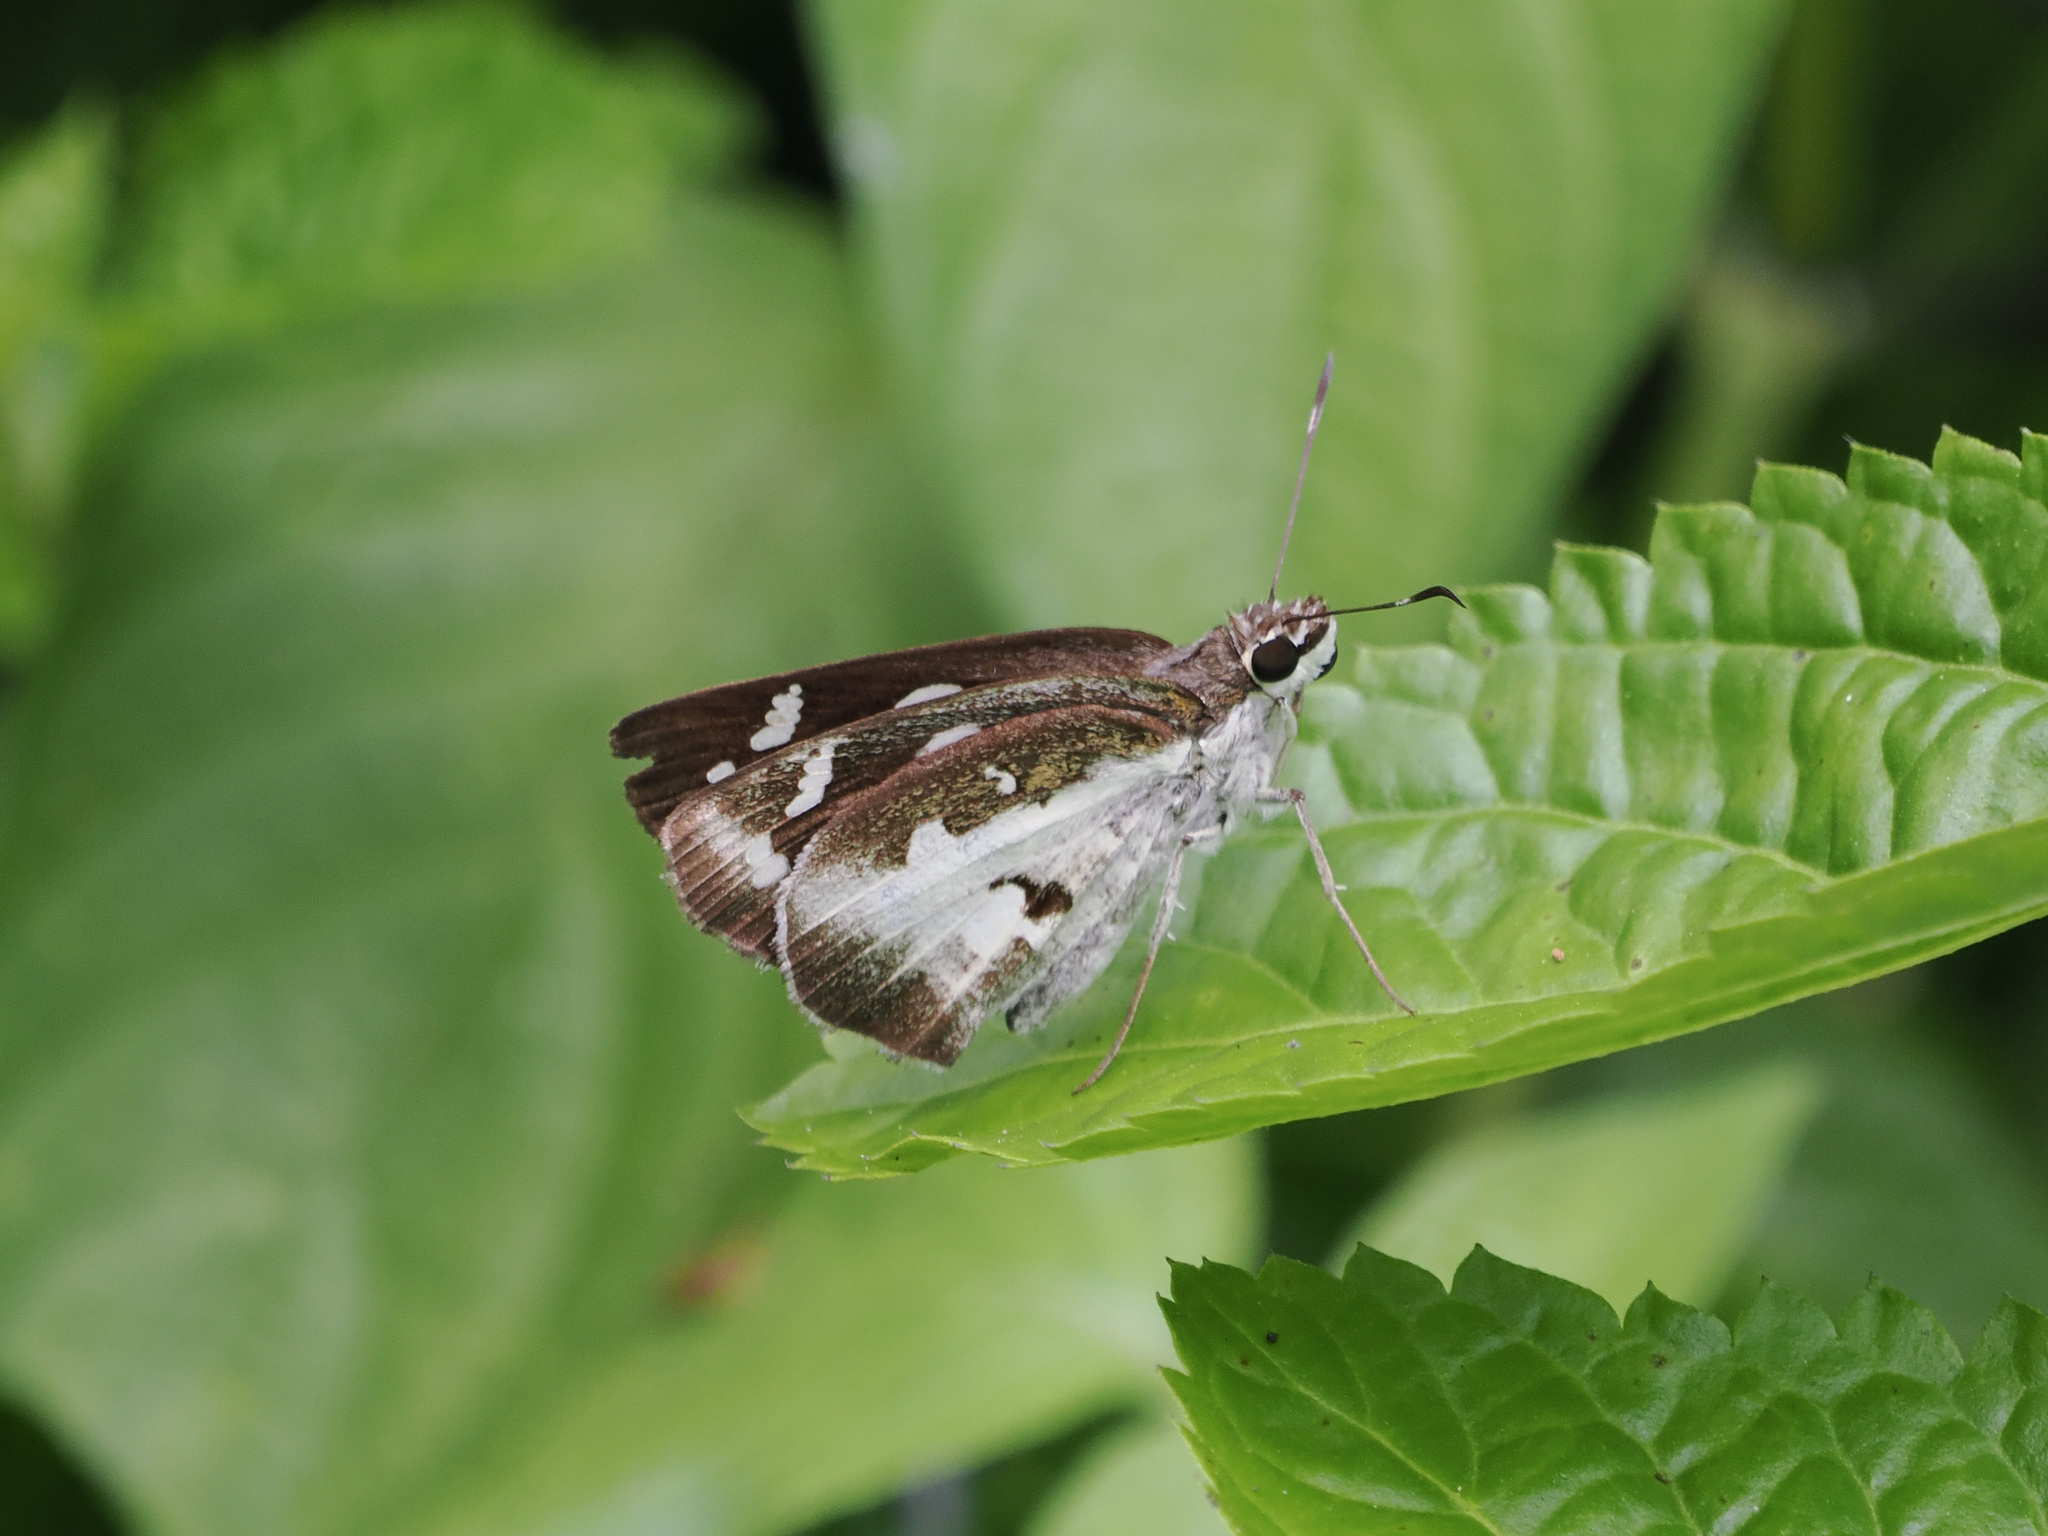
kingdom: Animalia
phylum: Arthropoda
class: Insecta
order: Lepidoptera
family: Hesperiidae
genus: Udaspes
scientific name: Udaspes folus
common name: Grass demon
